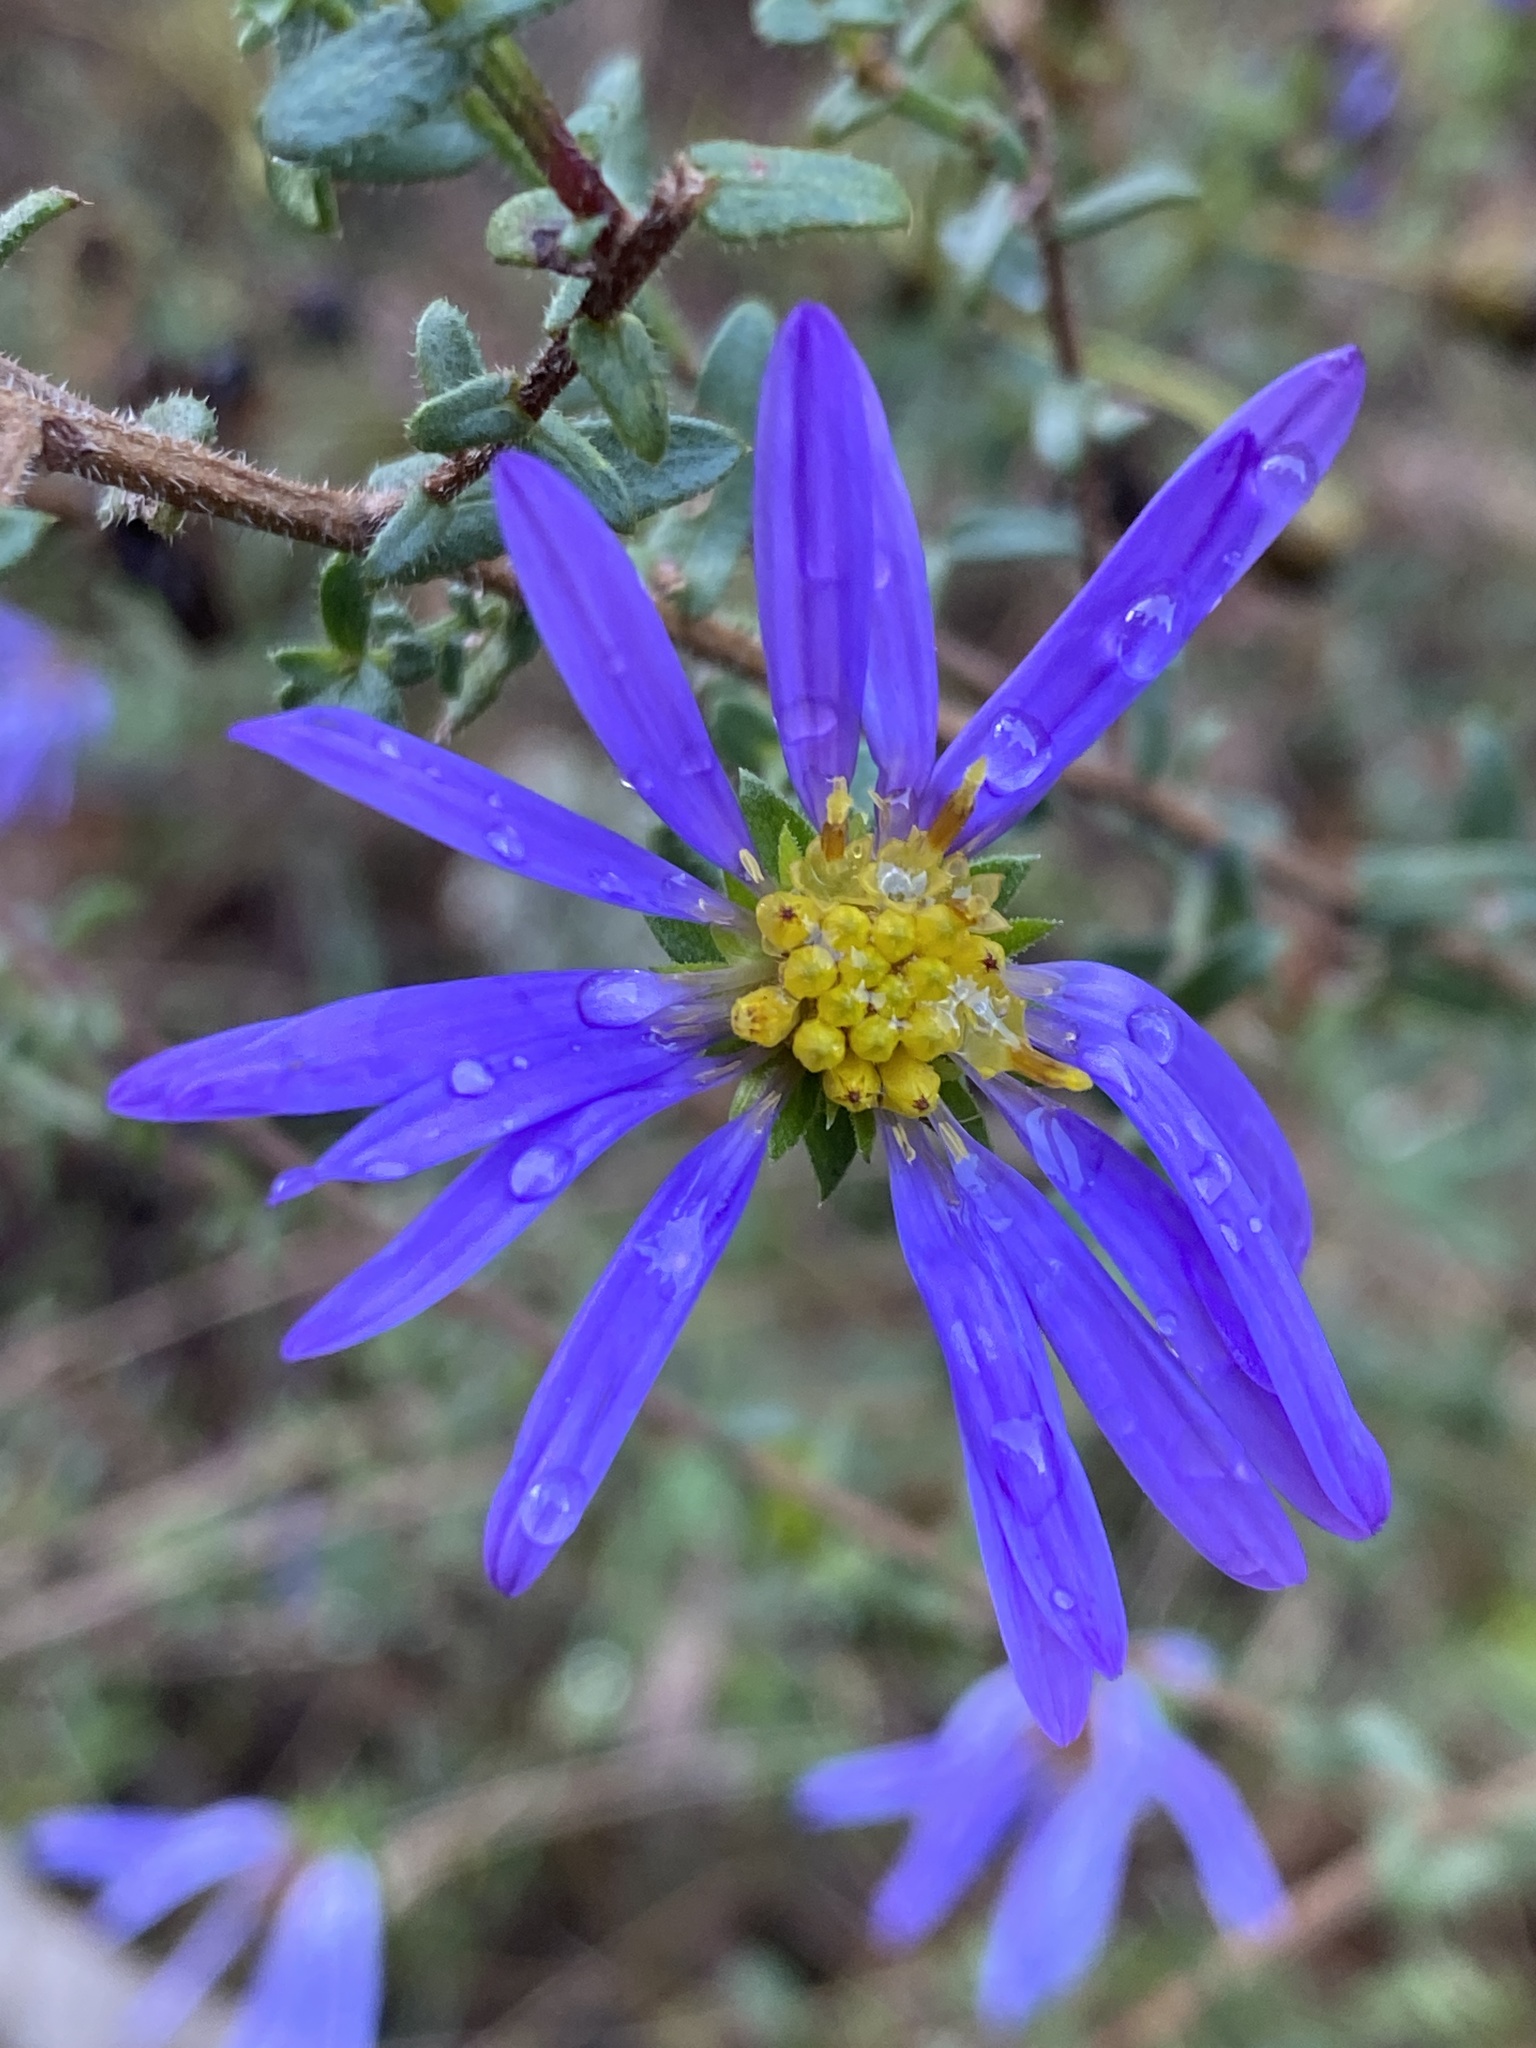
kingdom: Plantae
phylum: Tracheophyta
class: Magnoliopsida
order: Asterales
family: Asteraceae
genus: Symphyotrichum
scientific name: Symphyotrichum grandiflorum
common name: Big-head aster
